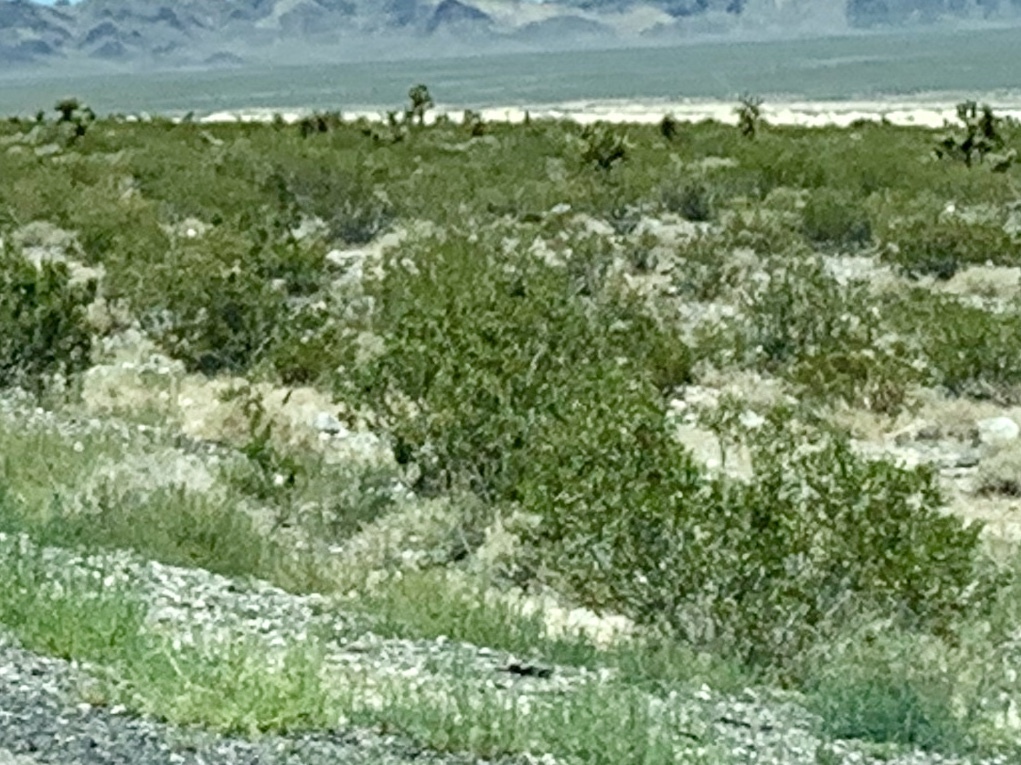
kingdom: Plantae
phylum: Tracheophyta
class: Magnoliopsida
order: Zygophyllales
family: Zygophyllaceae
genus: Larrea
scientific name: Larrea tridentata
